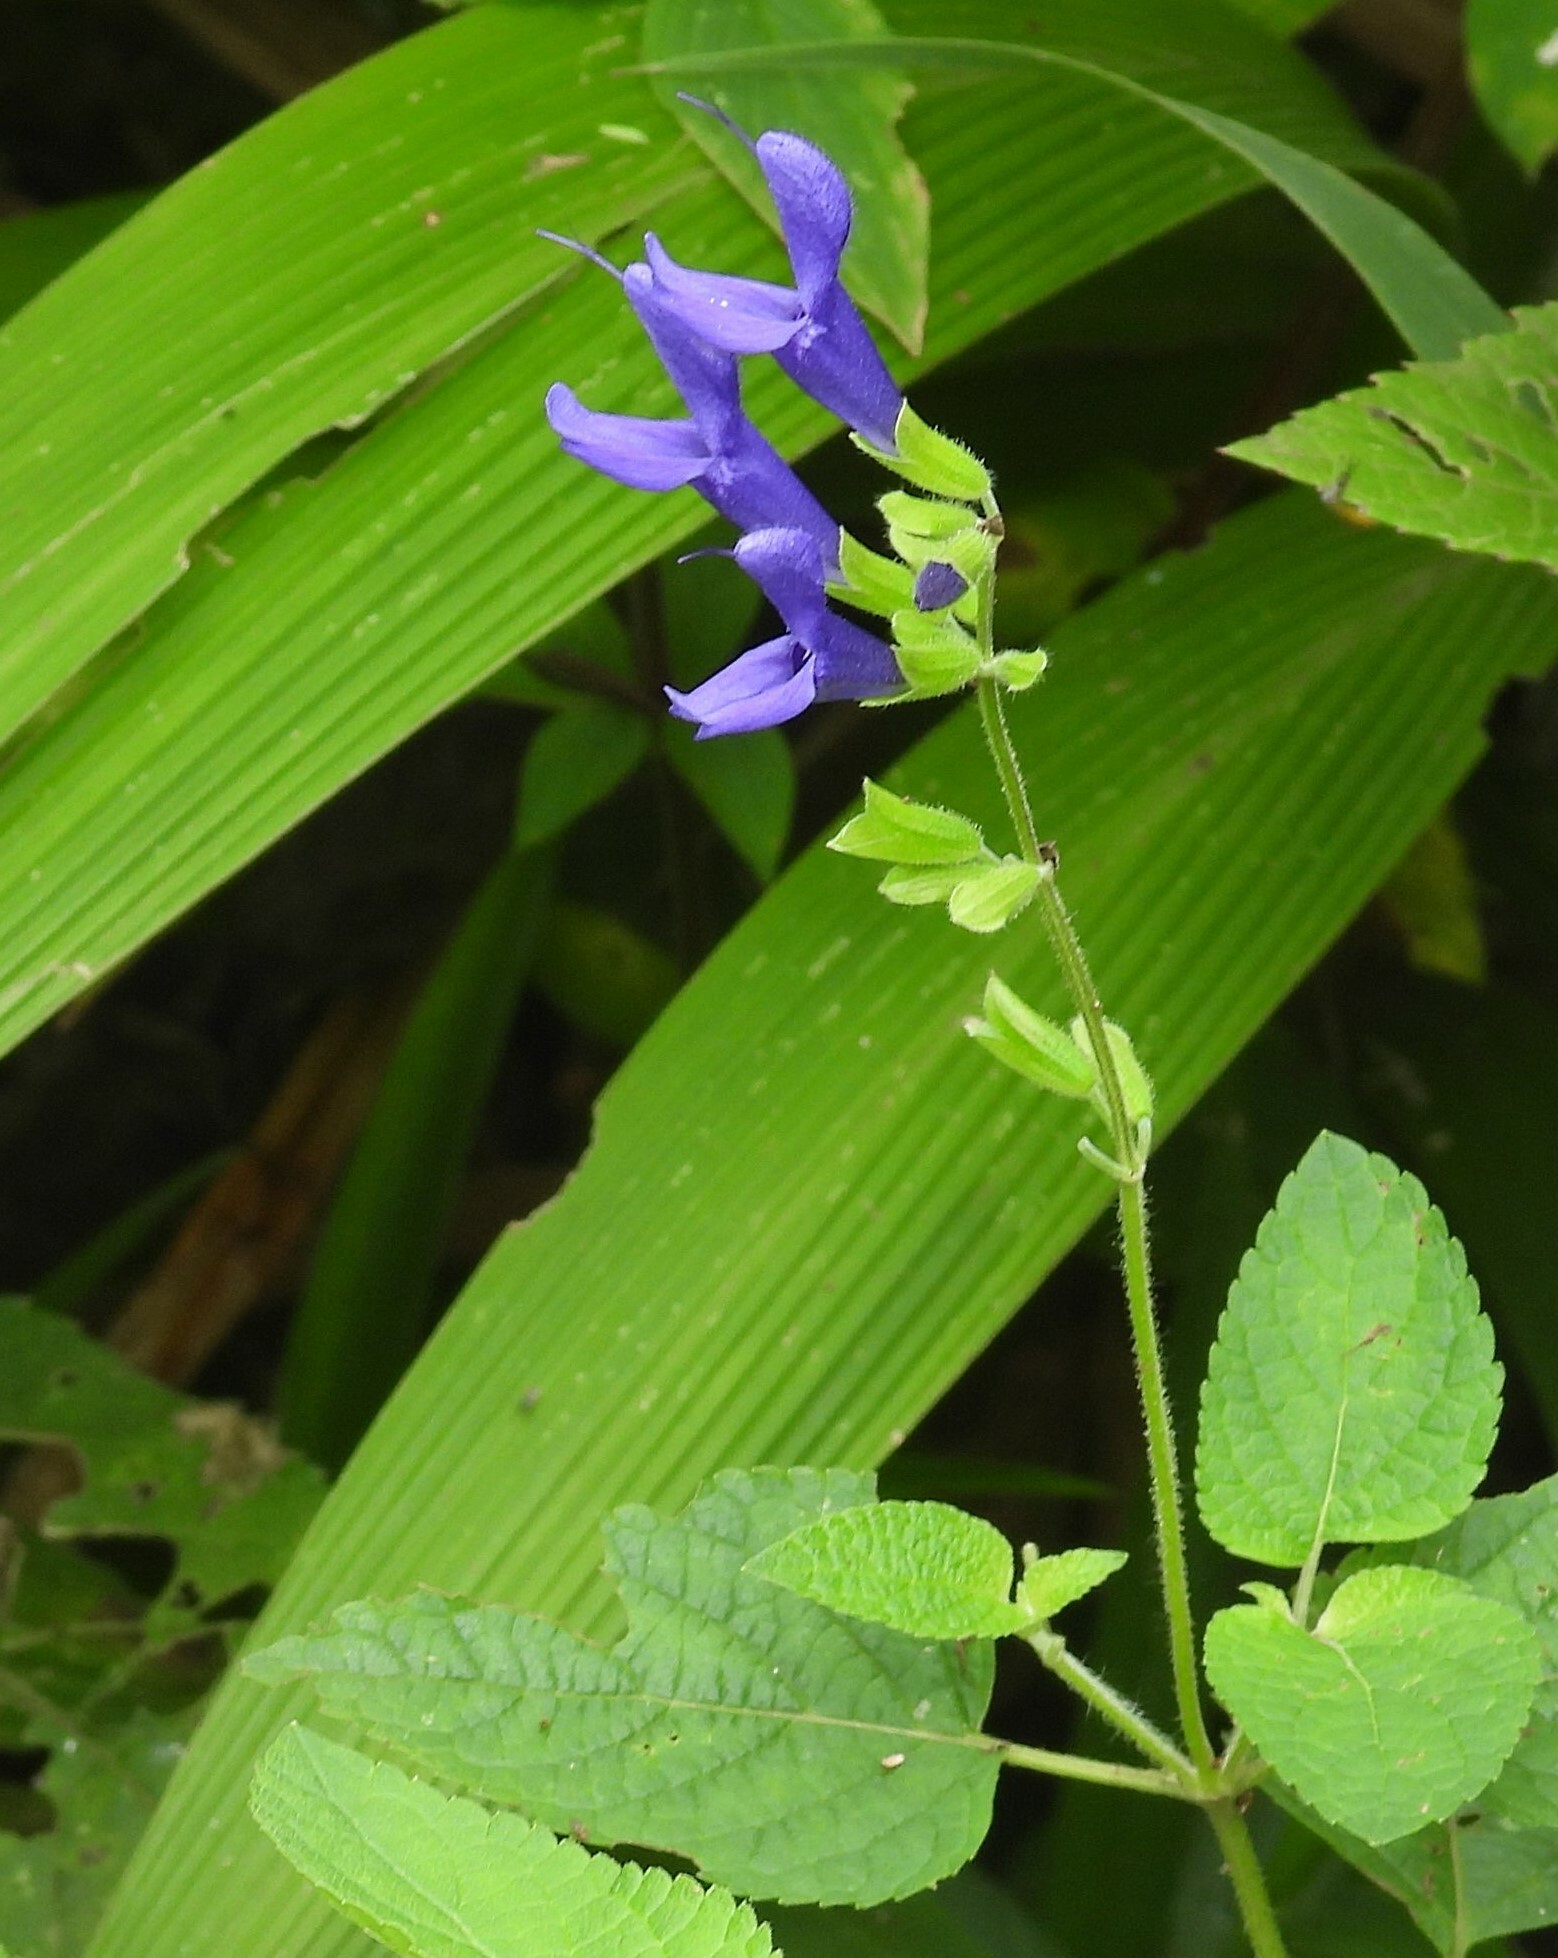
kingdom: Plantae
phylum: Tracheophyta
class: Magnoliopsida
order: Lamiales
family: Lamiaceae
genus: Salvia
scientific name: Salvia guaranitica
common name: Anise-scented sage
